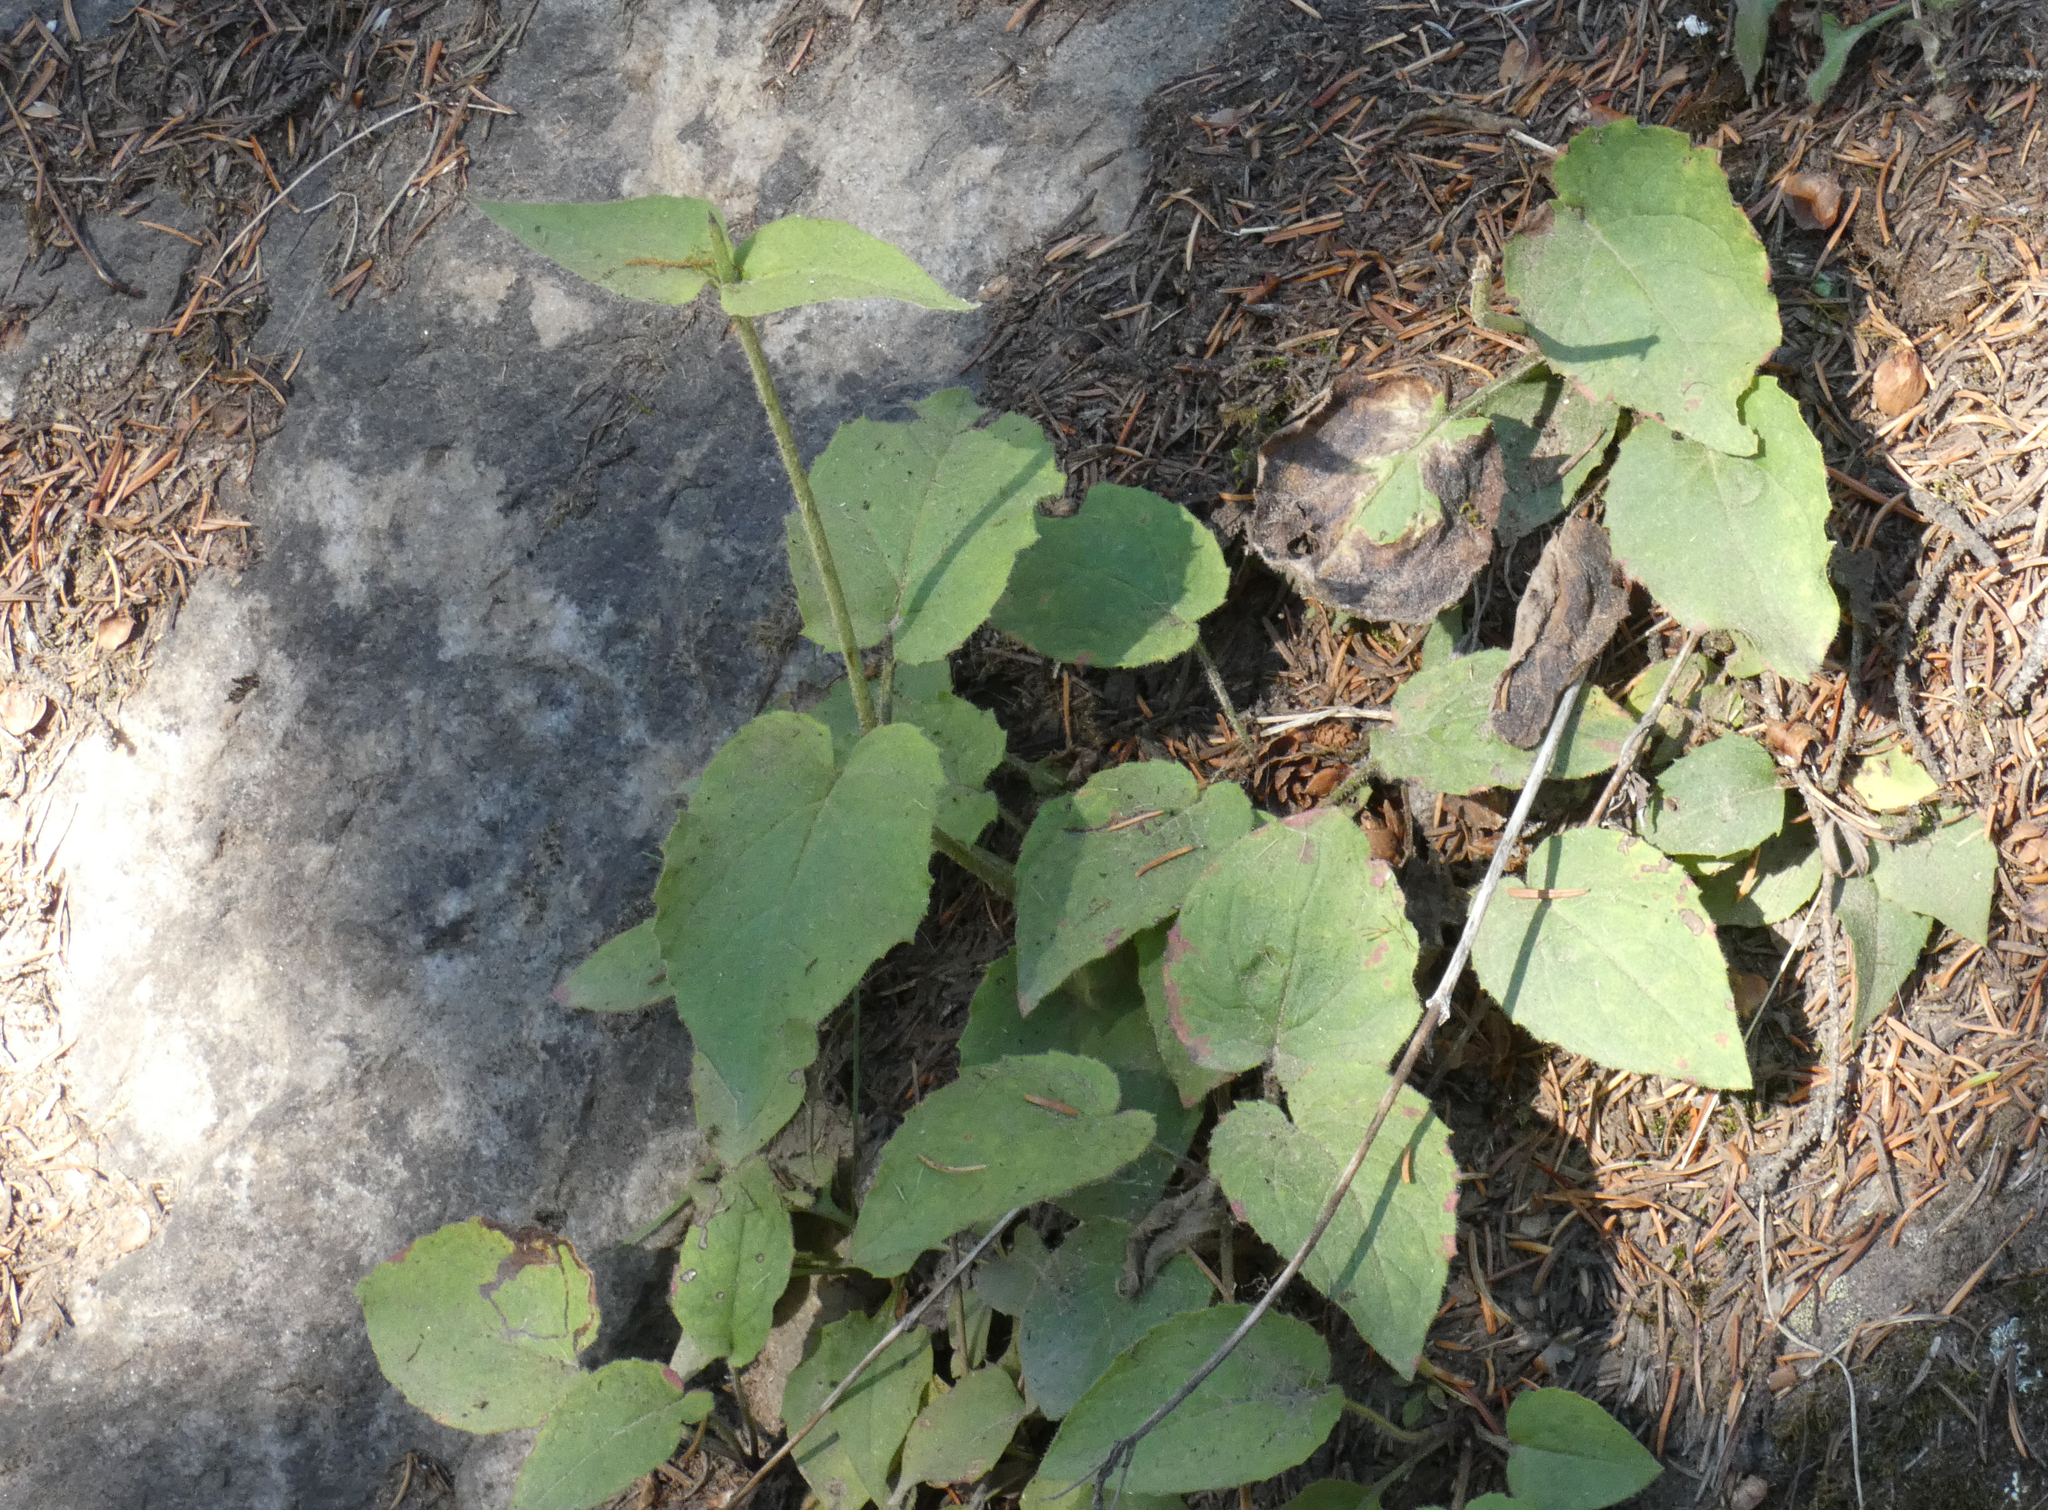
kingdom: Plantae
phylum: Tracheophyta
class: Magnoliopsida
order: Asterales
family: Asteraceae
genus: Arnica
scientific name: Arnica cordifolia
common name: Heart-leaf arnica
